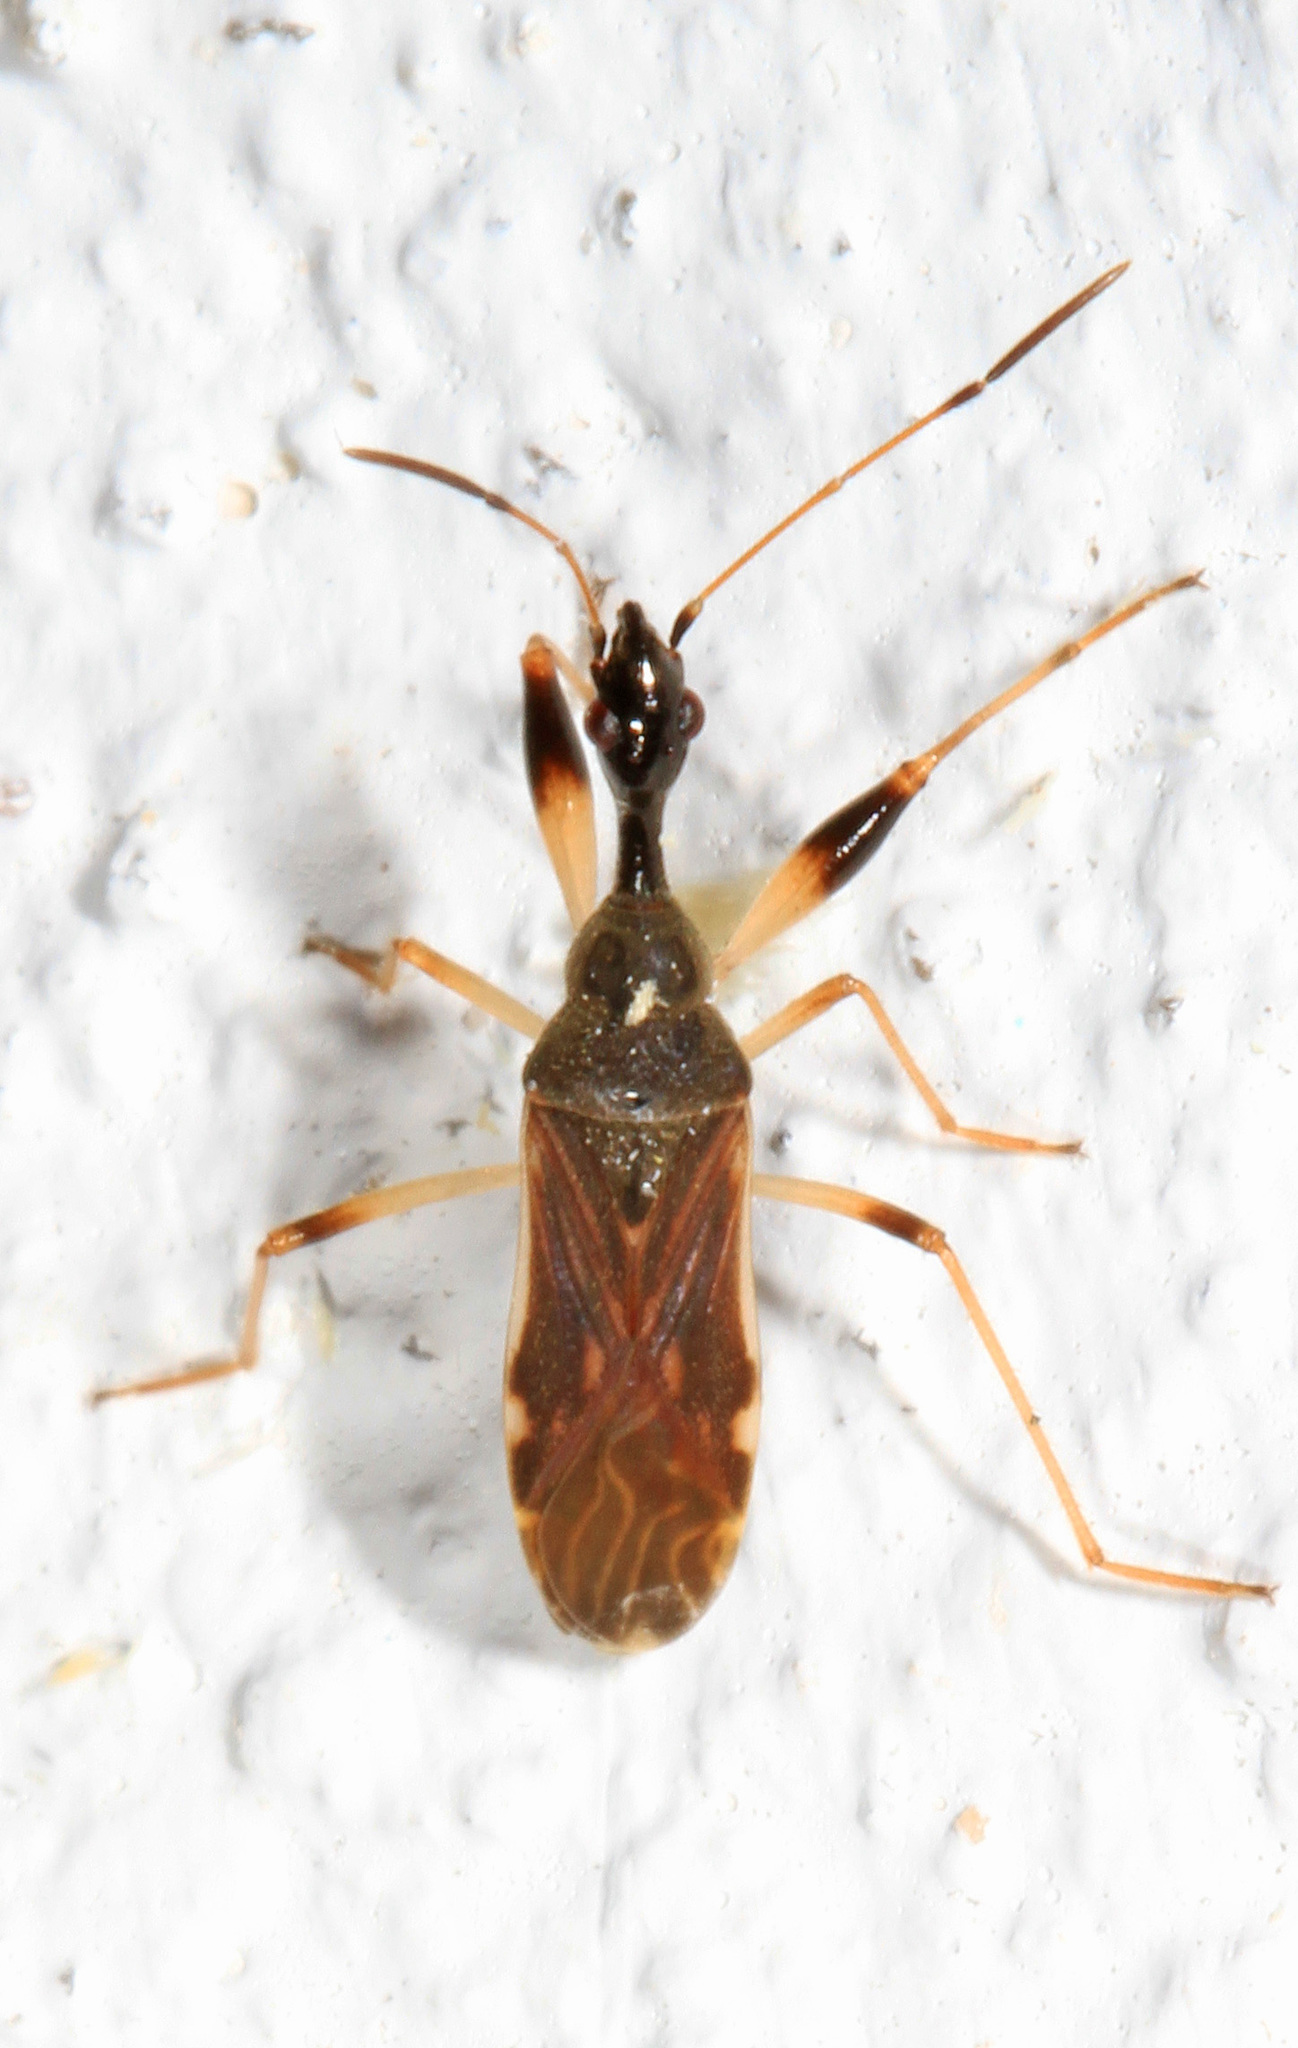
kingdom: Animalia
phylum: Arthropoda
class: Insecta
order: Hemiptera
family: Rhyparochromidae
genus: Myodocha
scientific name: Myodocha serripes
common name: Long-necked seed bug
